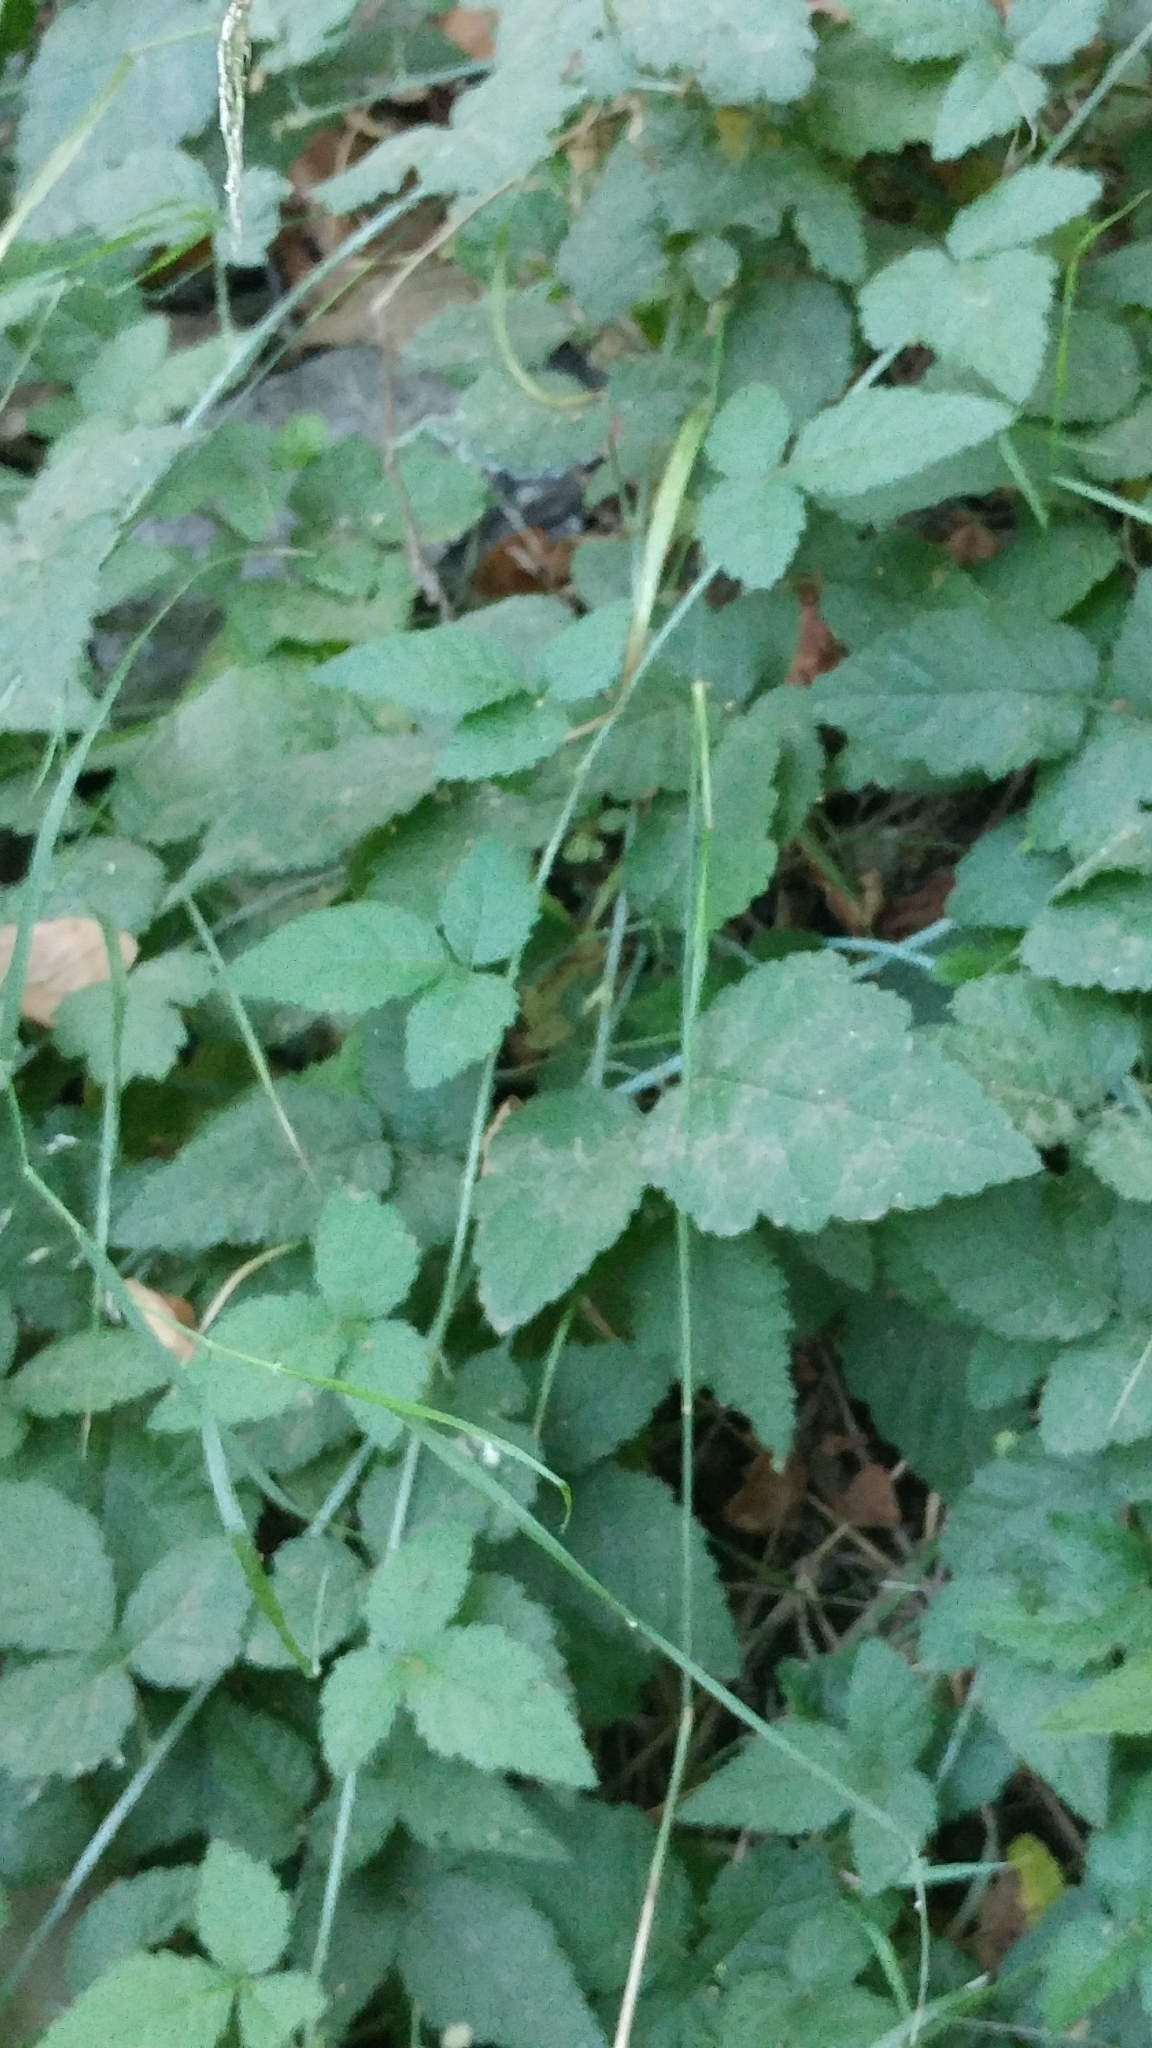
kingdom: Plantae
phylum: Tracheophyta
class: Magnoliopsida
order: Rosales
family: Rosaceae
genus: Rubus
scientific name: Rubus ursinus
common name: Pacific blackberry
